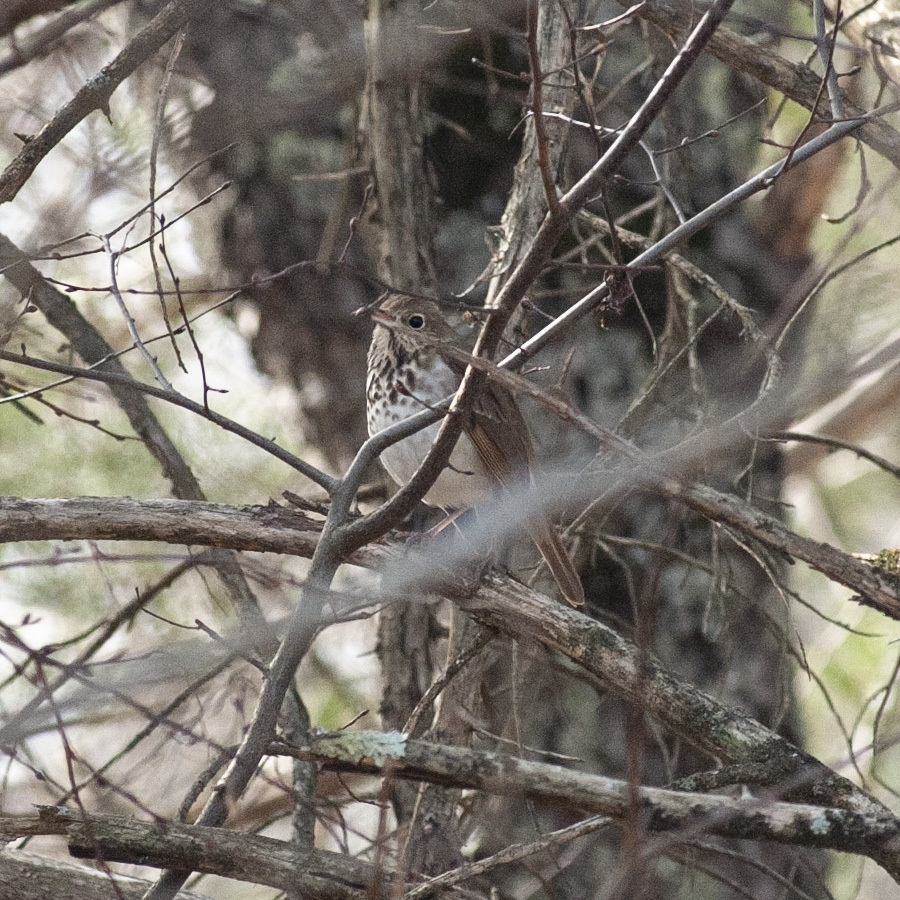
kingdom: Animalia
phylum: Chordata
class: Aves
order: Passeriformes
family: Turdidae
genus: Catharus
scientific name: Catharus guttatus
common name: Hermit thrush
